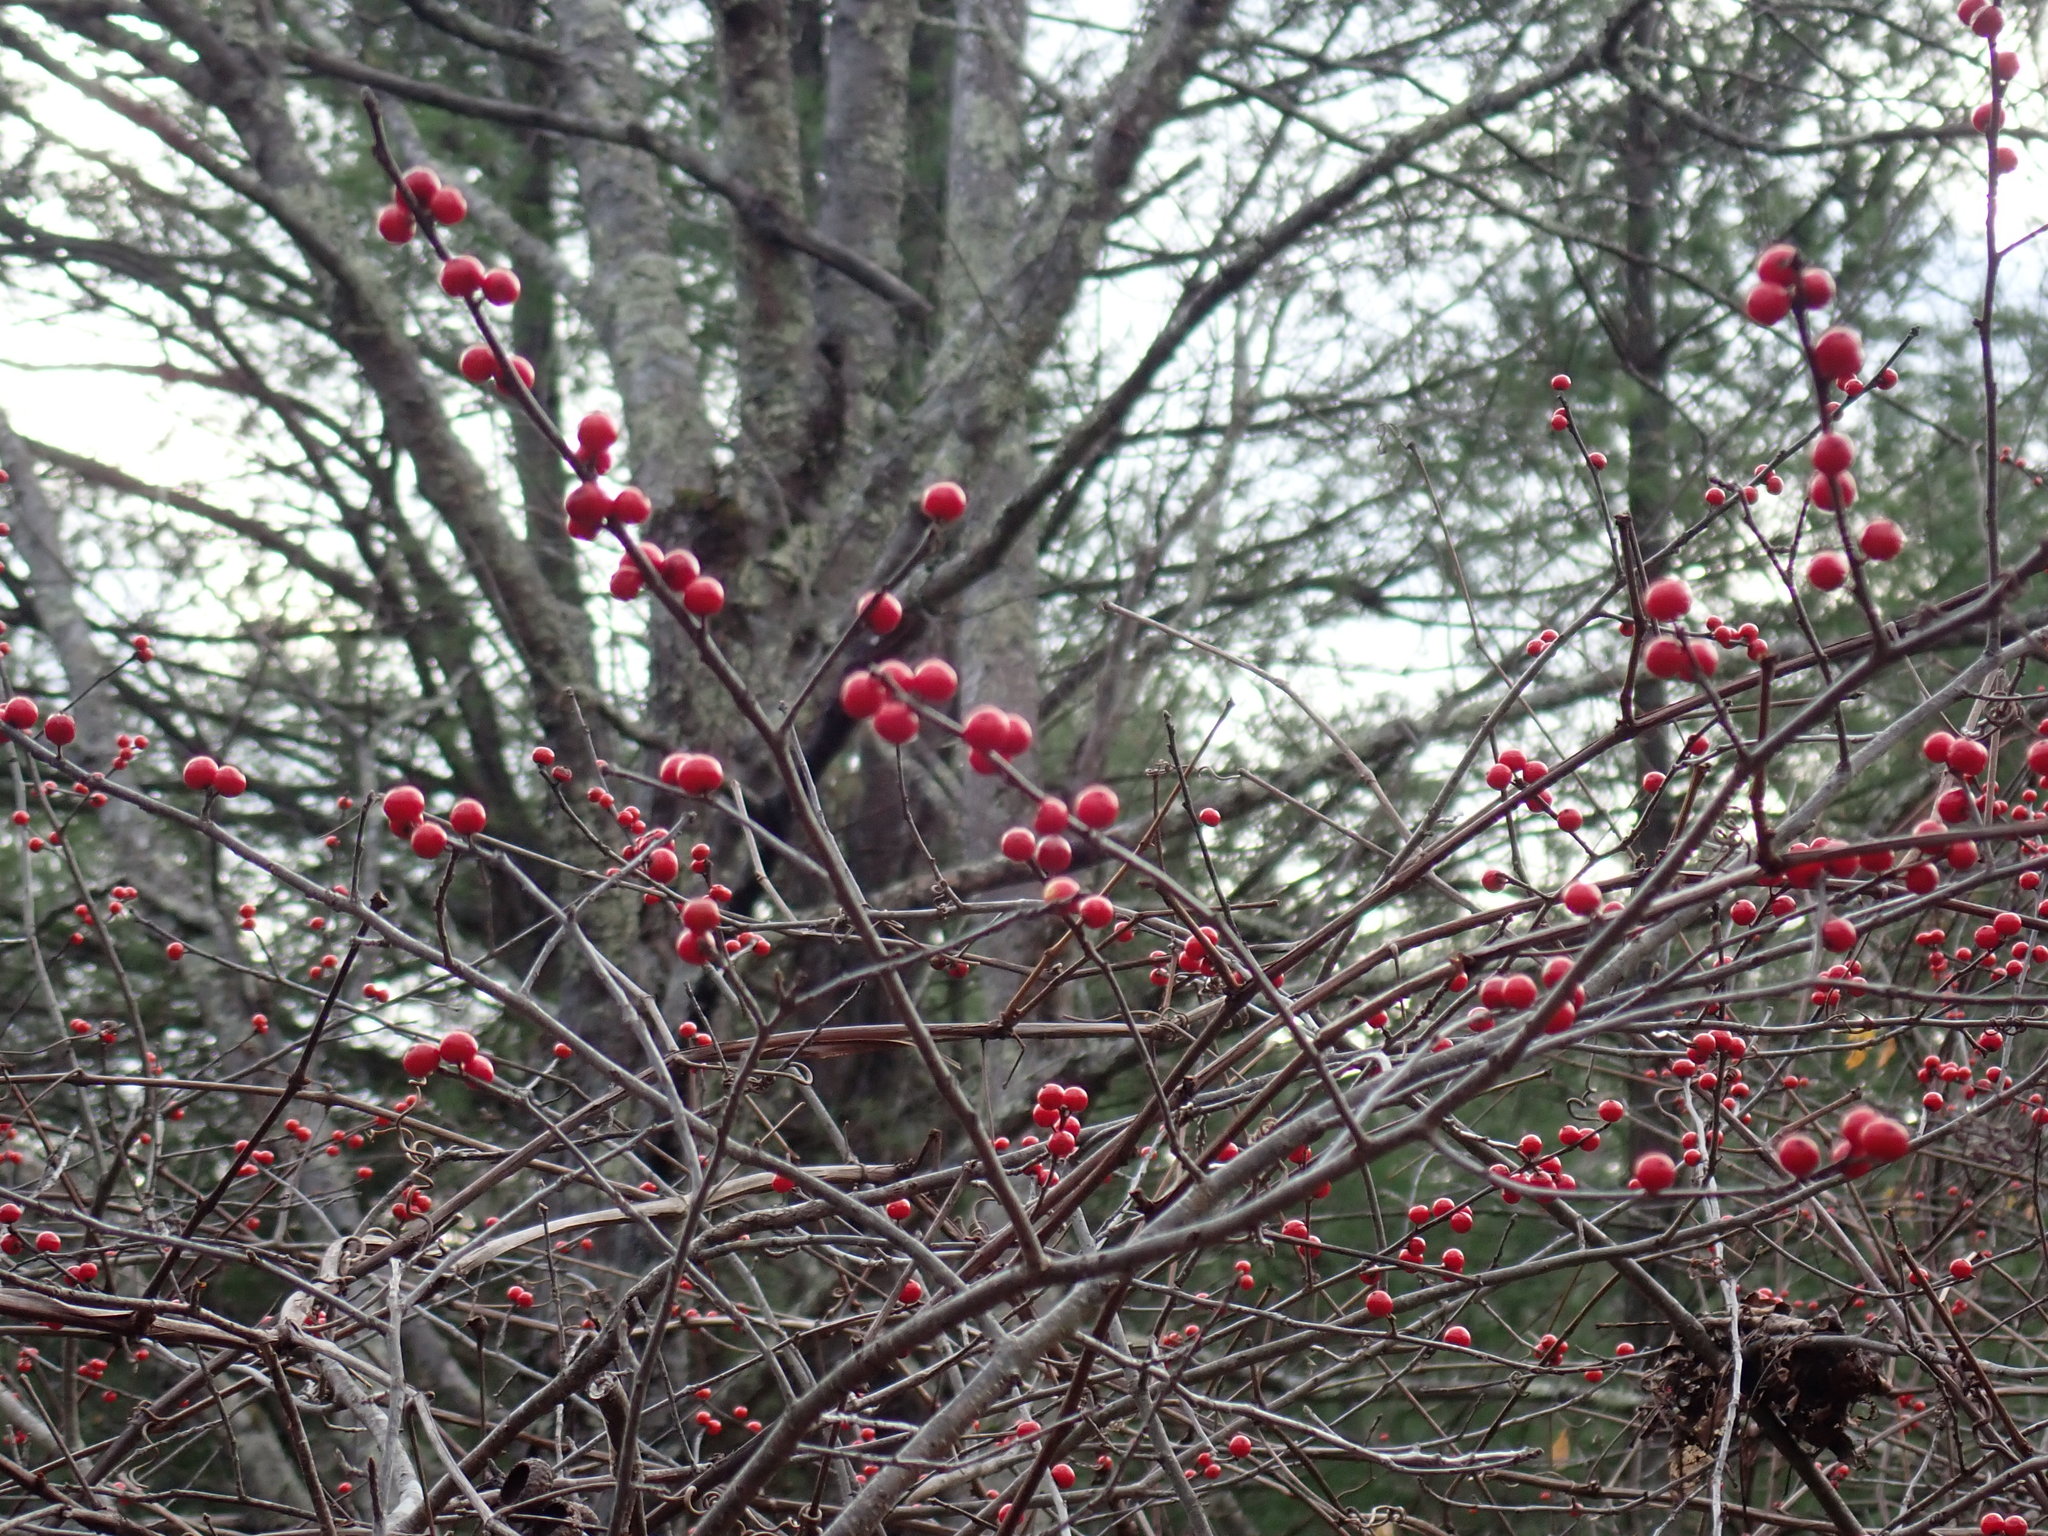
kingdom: Plantae
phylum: Tracheophyta
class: Magnoliopsida
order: Aquifoliales
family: Aquifoliaceae
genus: Ilex
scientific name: Ilex verticillata
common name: Virginia winterberry
